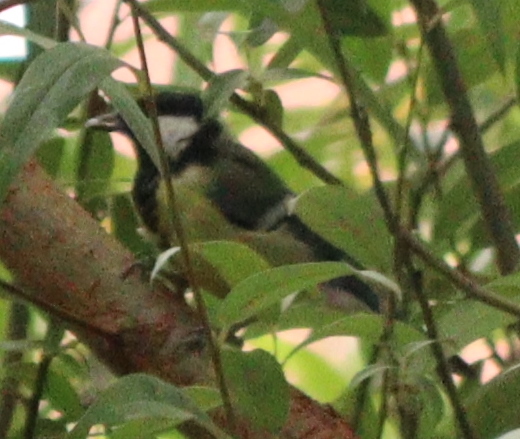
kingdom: Animalia
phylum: Chordata
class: Aves
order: Passeriformes
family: Paridae
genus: Parus
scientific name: Parus major
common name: Great tit
